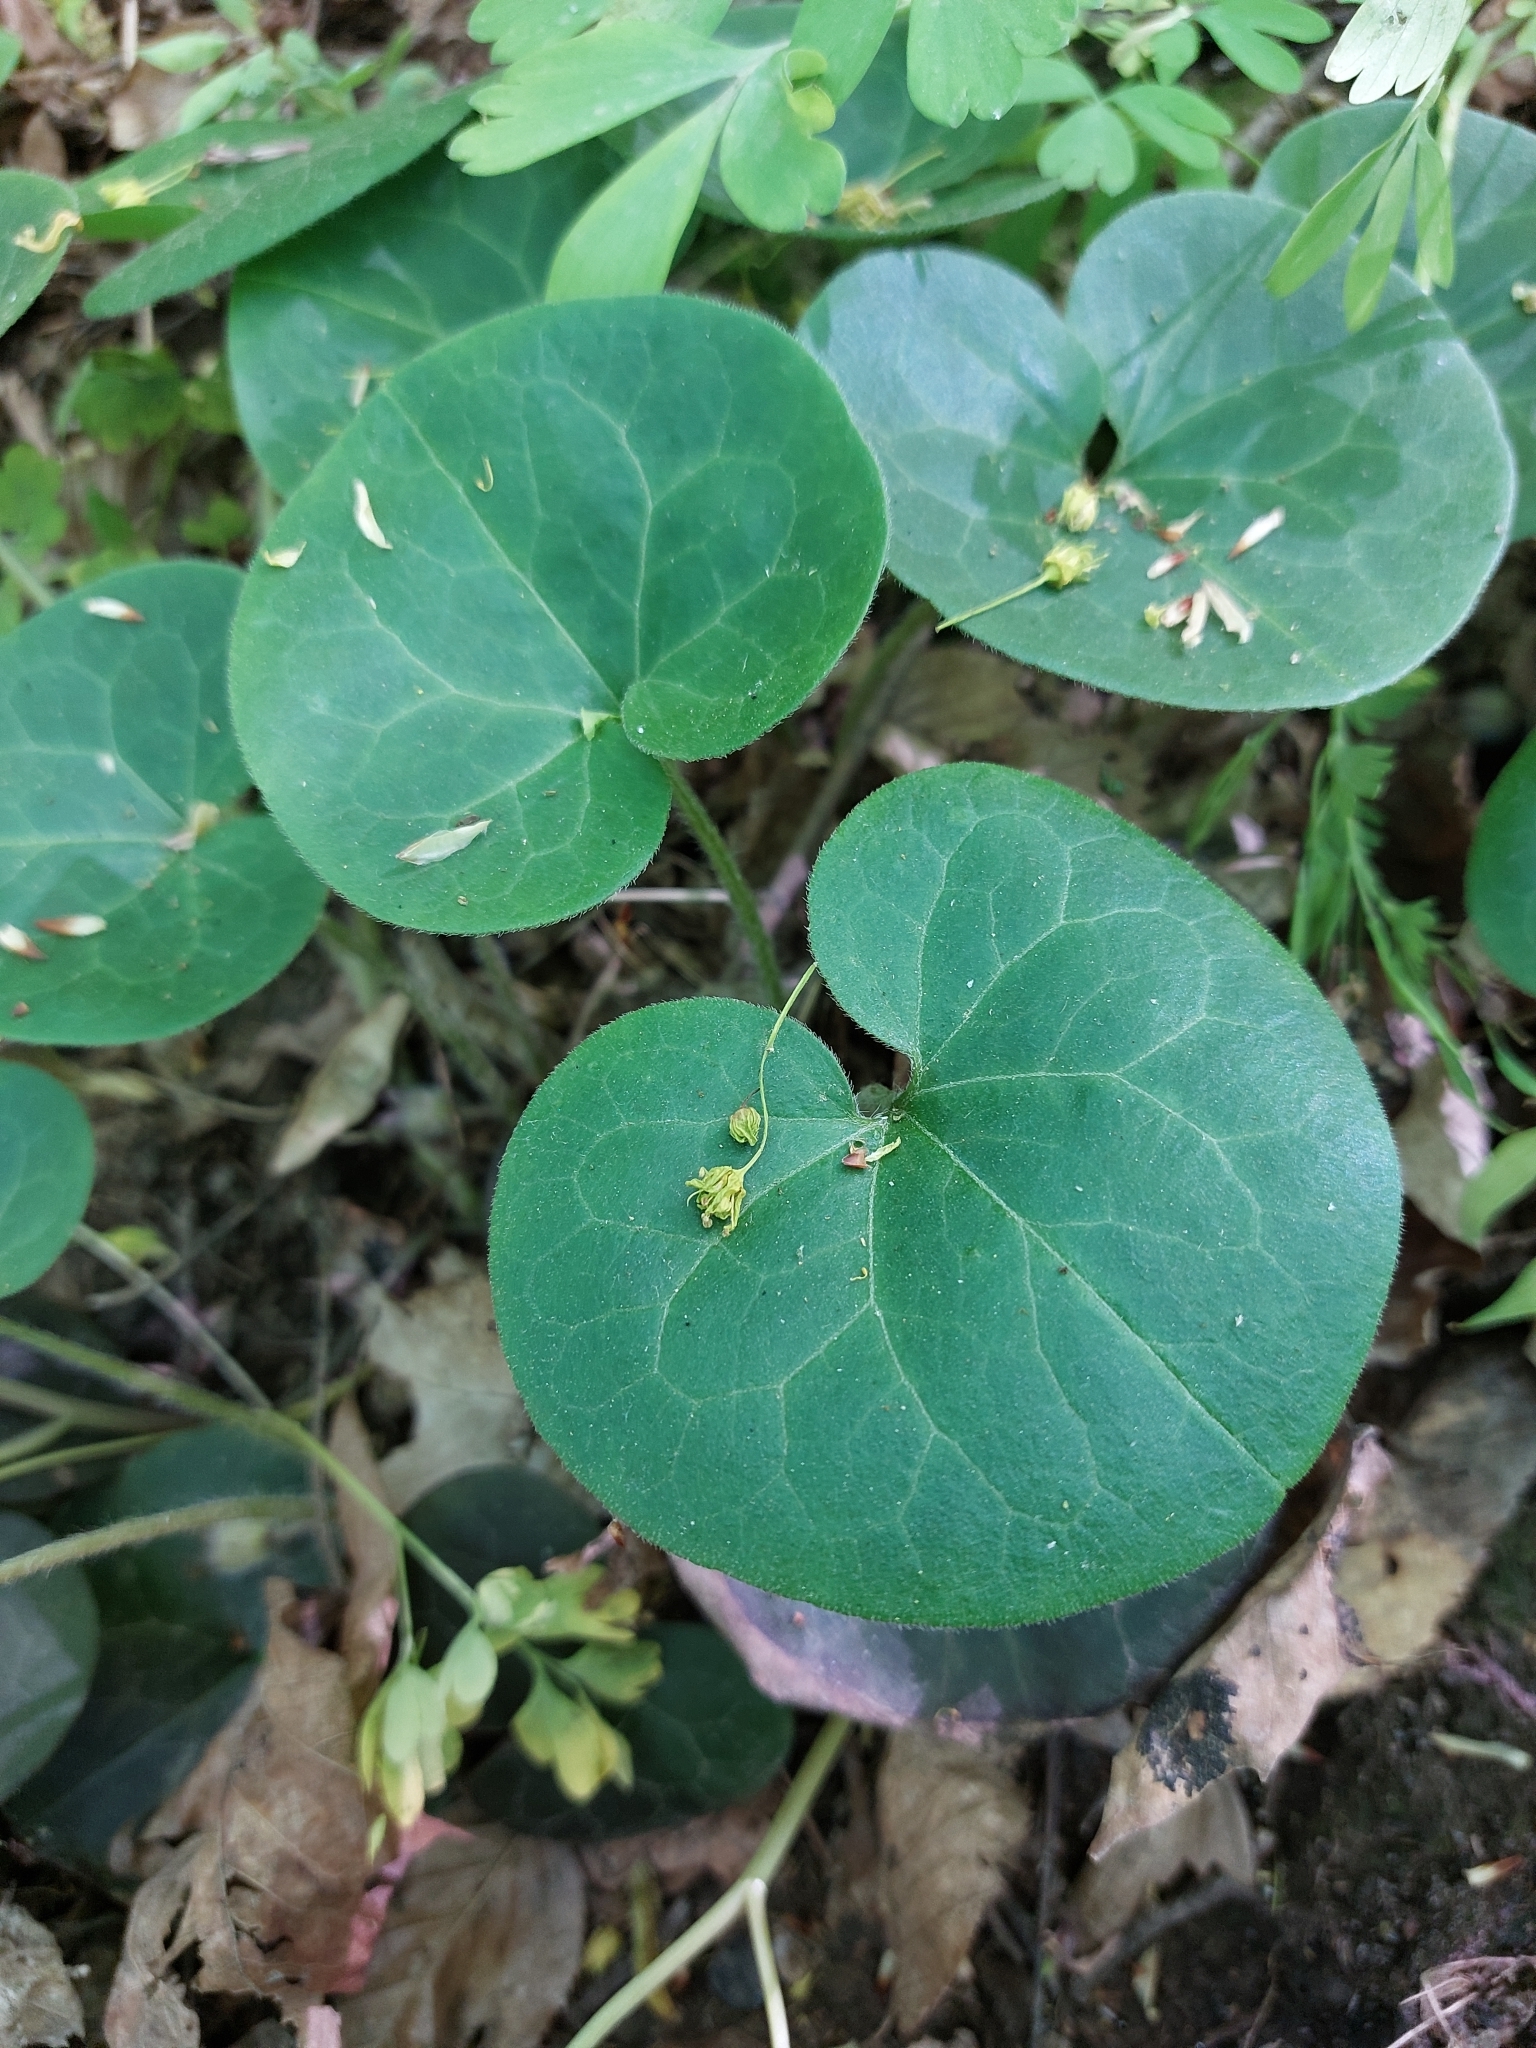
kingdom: Plantae
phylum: Tracheophyta
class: Magnoliopsida
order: Piperales
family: Aristolochiaceae
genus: Asarum
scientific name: Asarum europaeum
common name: Asarabacca
